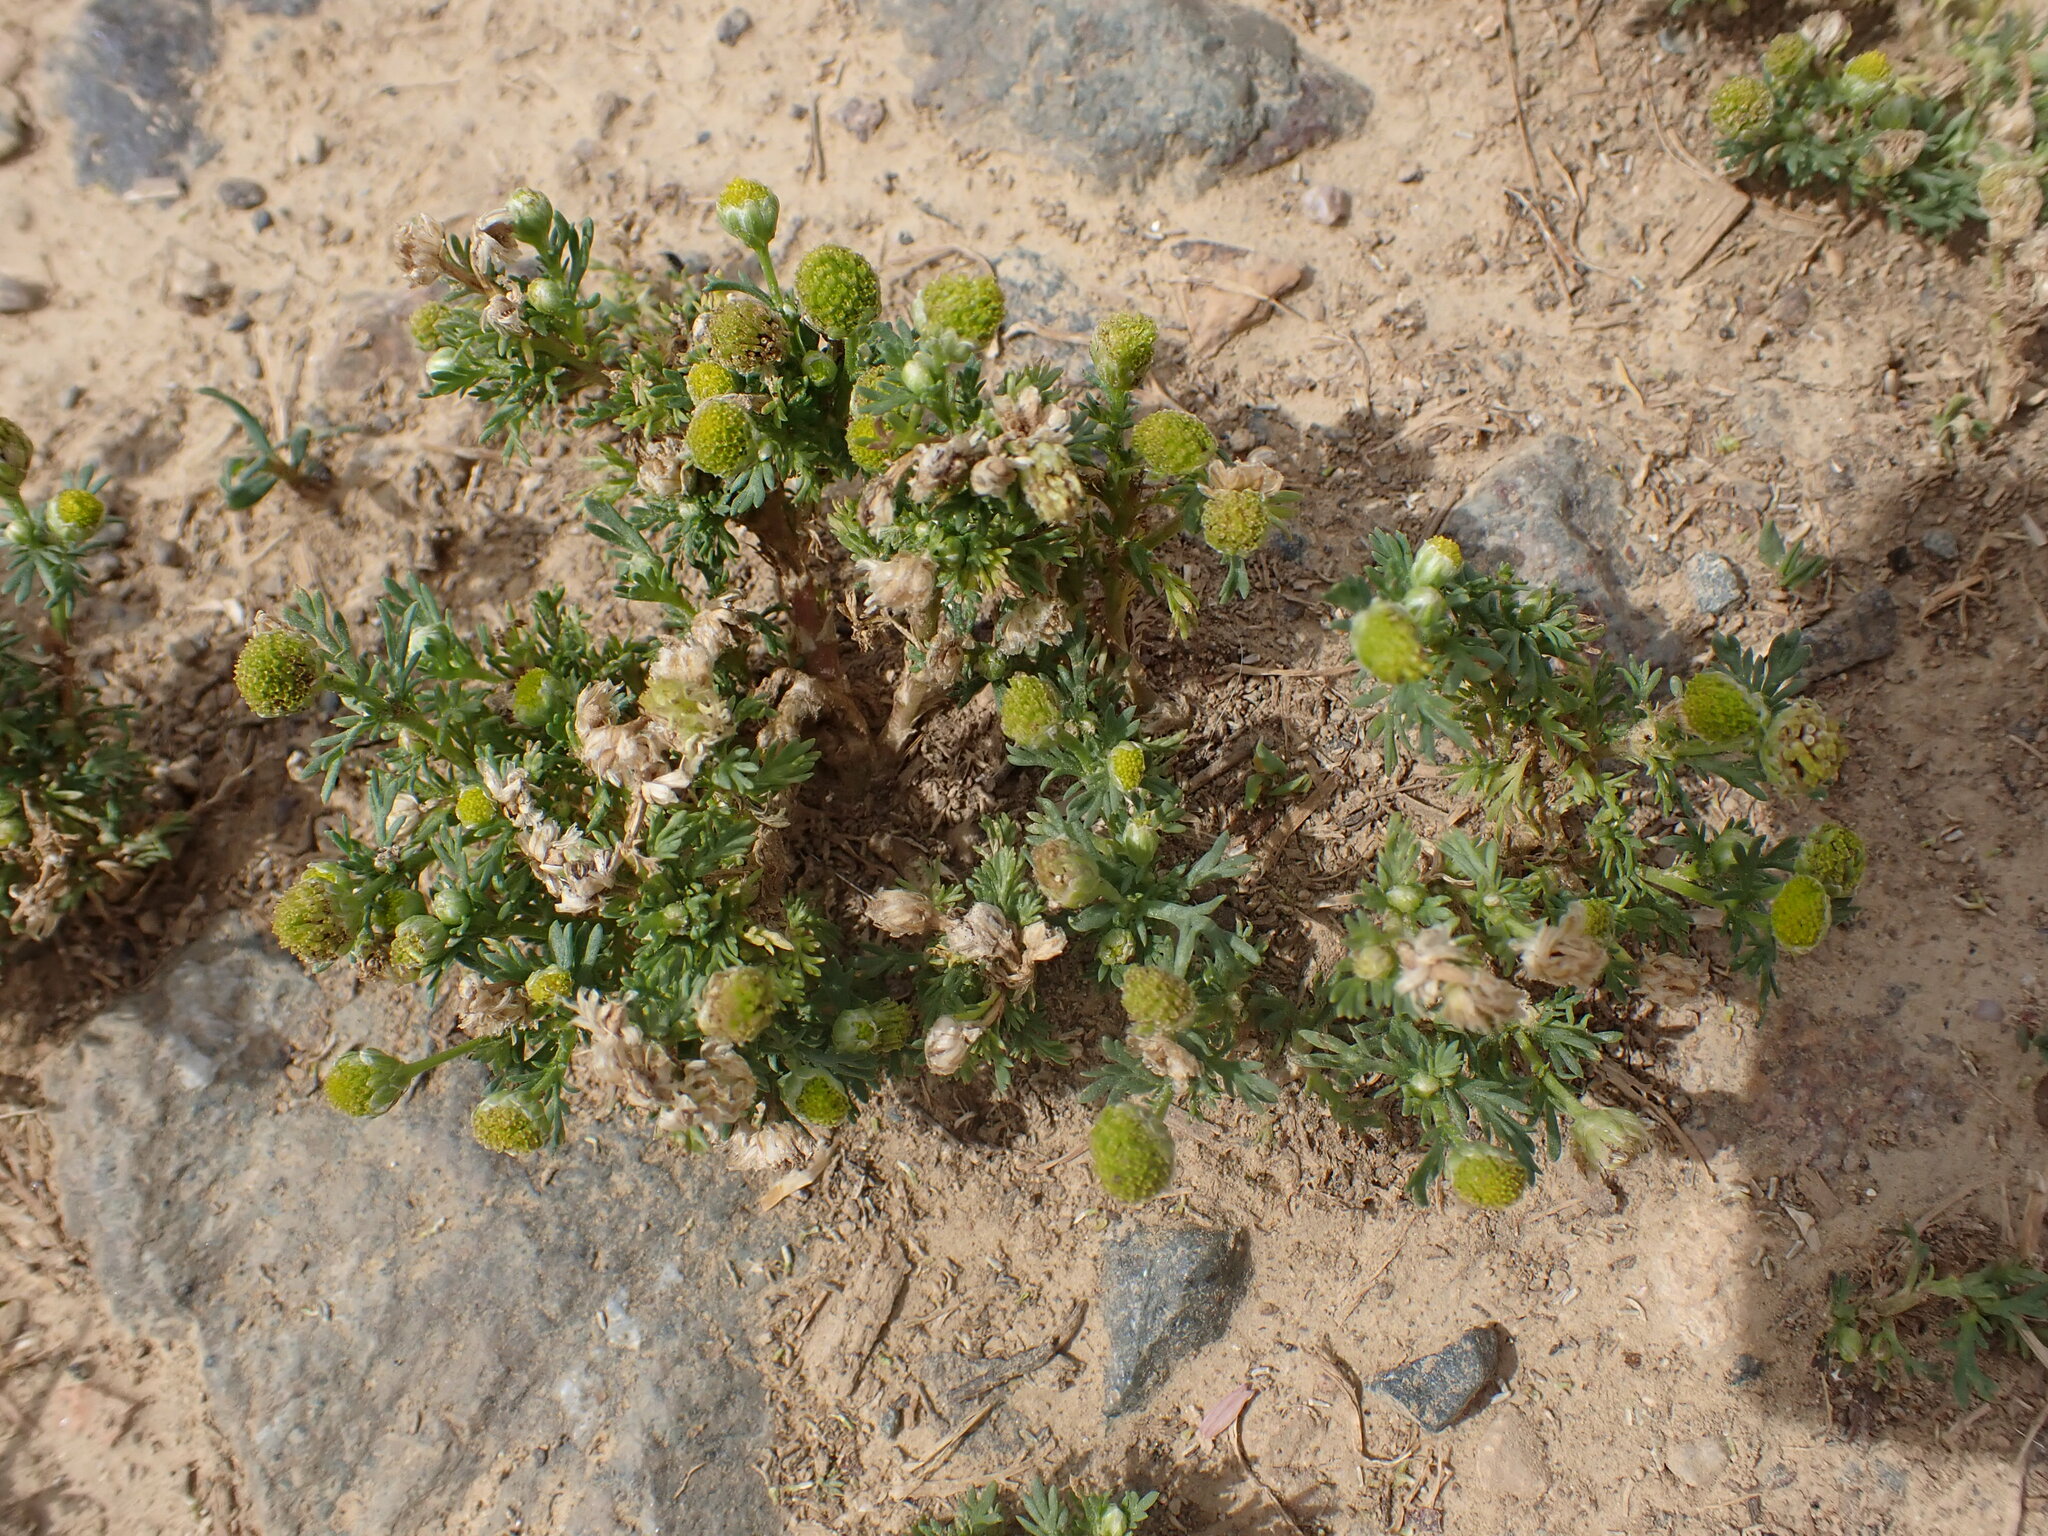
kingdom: Plantae
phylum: Tracheophyta
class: Magnoliopsida
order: Asterales
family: Asteraceae
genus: Matricaria
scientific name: Matricaria discoidea
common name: Disc mayweed
